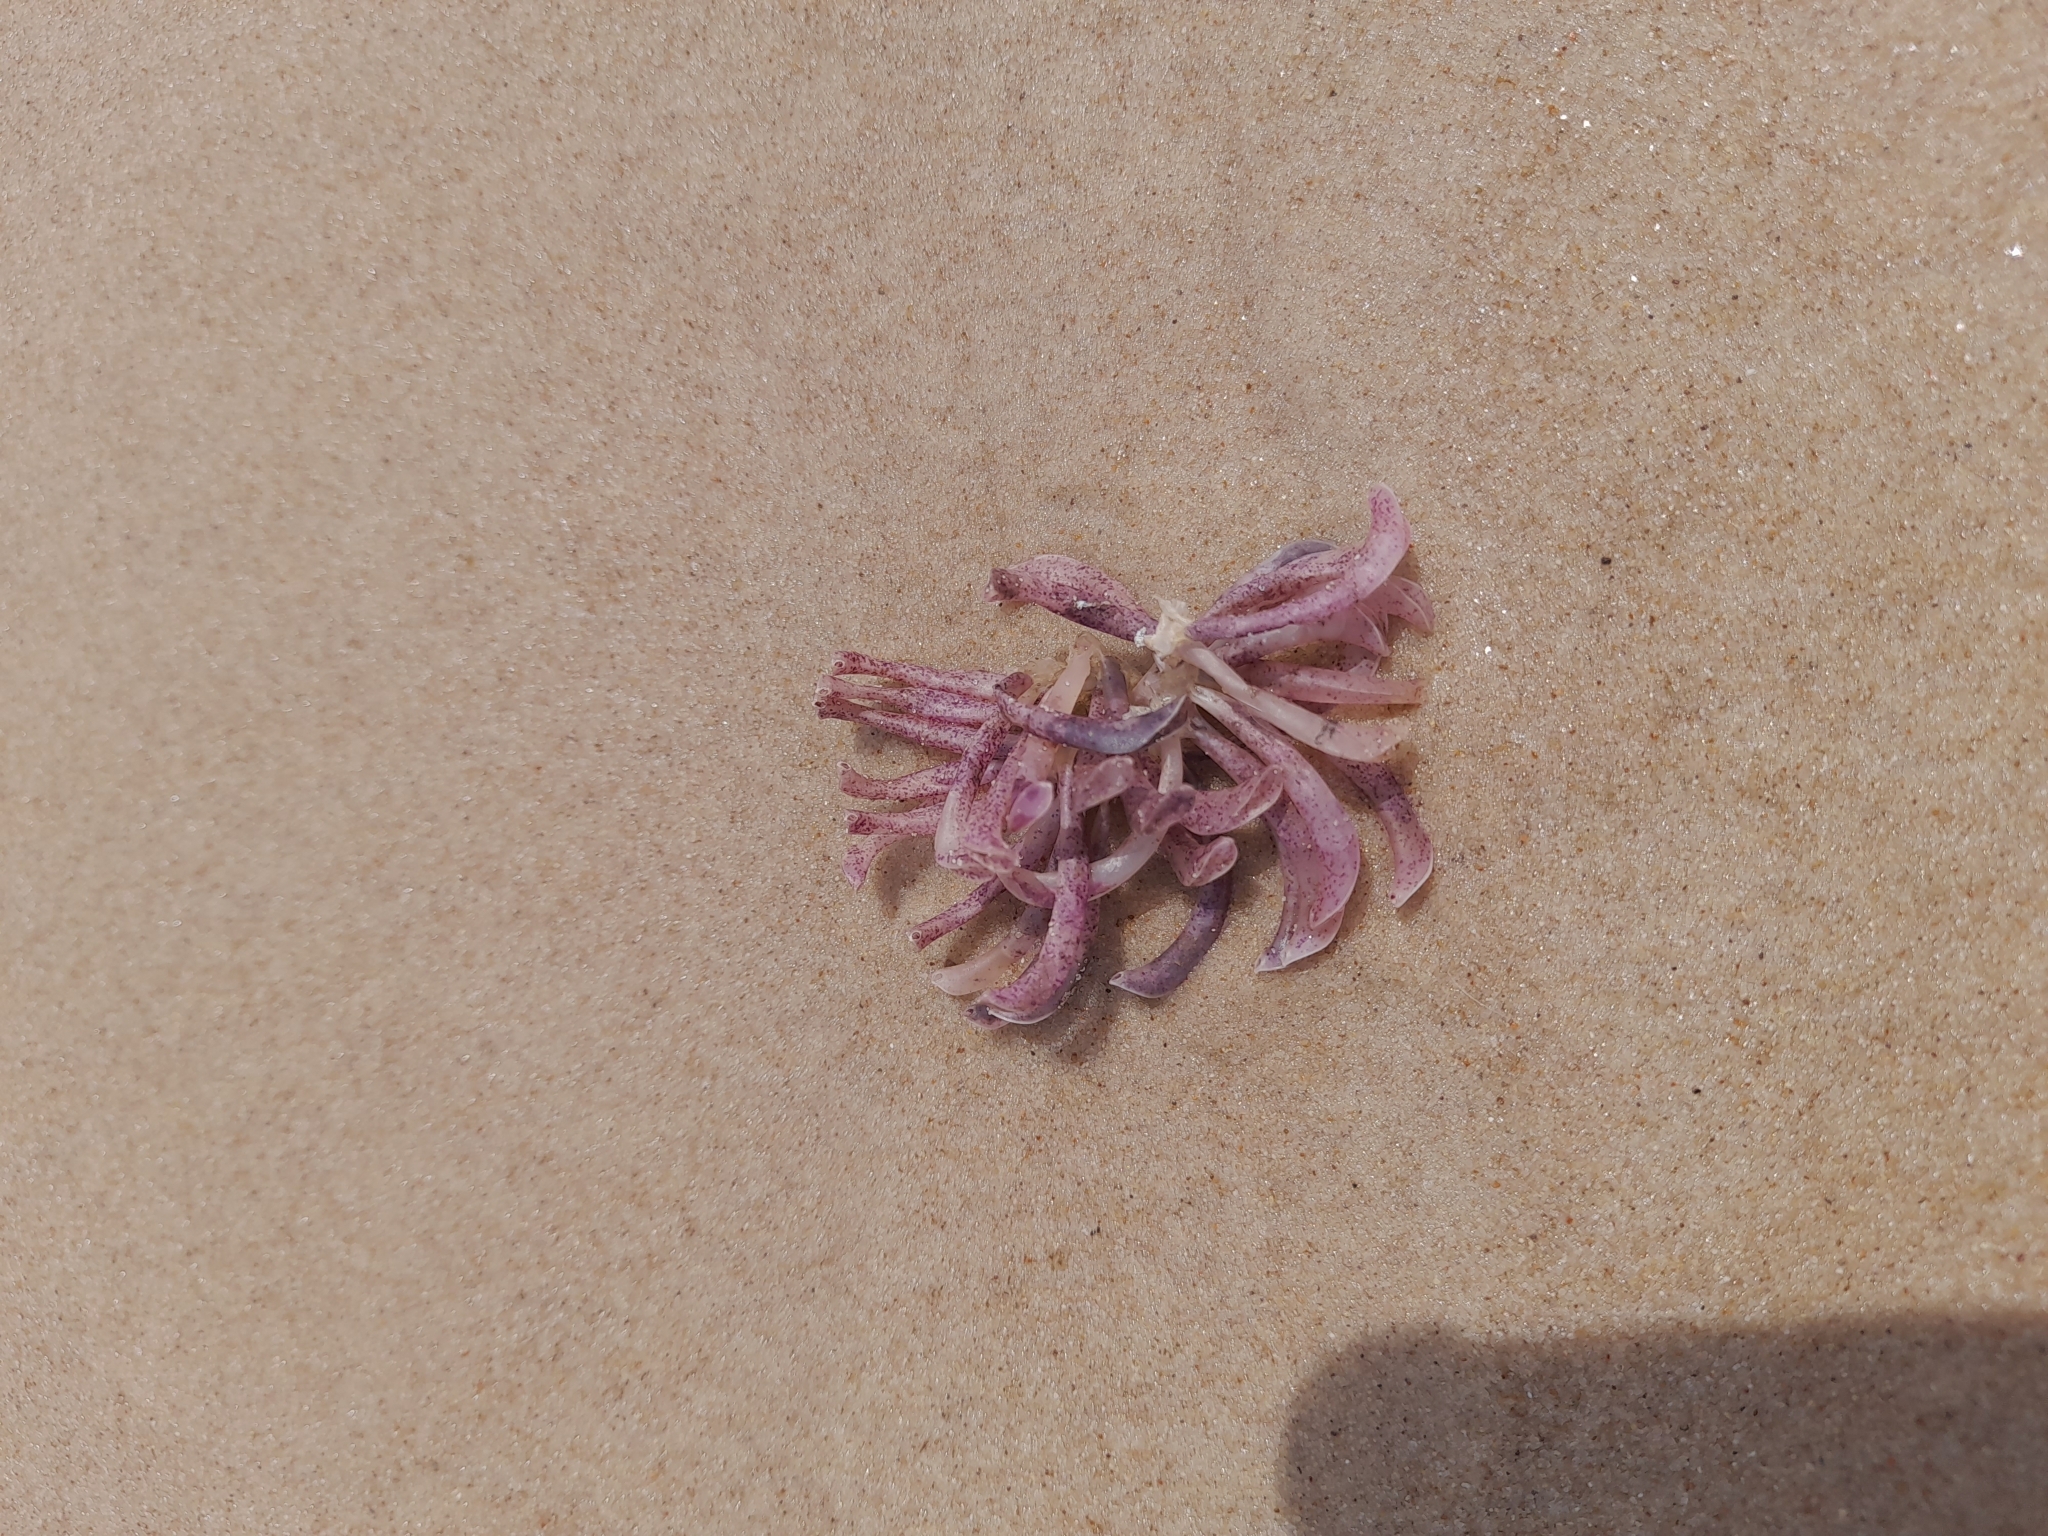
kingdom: Animalia
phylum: Mollusca
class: Gastropoda
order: Neogastropoda
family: Muricidae
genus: Rapana
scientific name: Rapana venosa
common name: Veined rapa whelk
